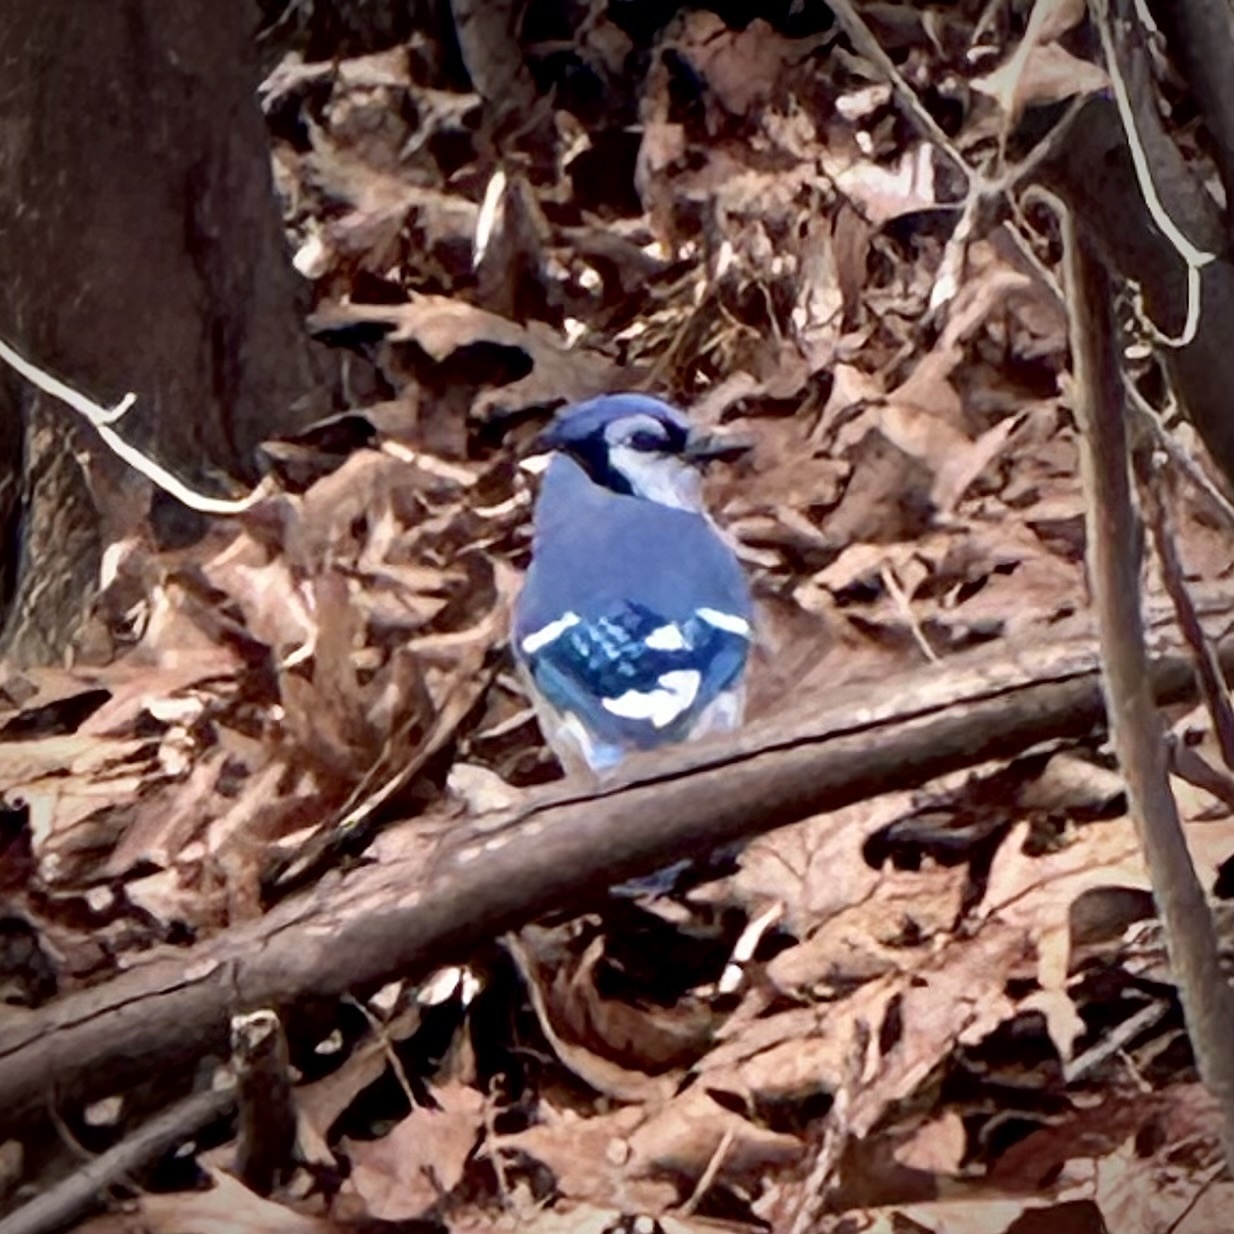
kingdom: Animalia
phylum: Chordata
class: Aves
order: Passeriformes
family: Corvidae
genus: Cyanocitta
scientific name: Cyanocitta cristata
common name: Blue jay
